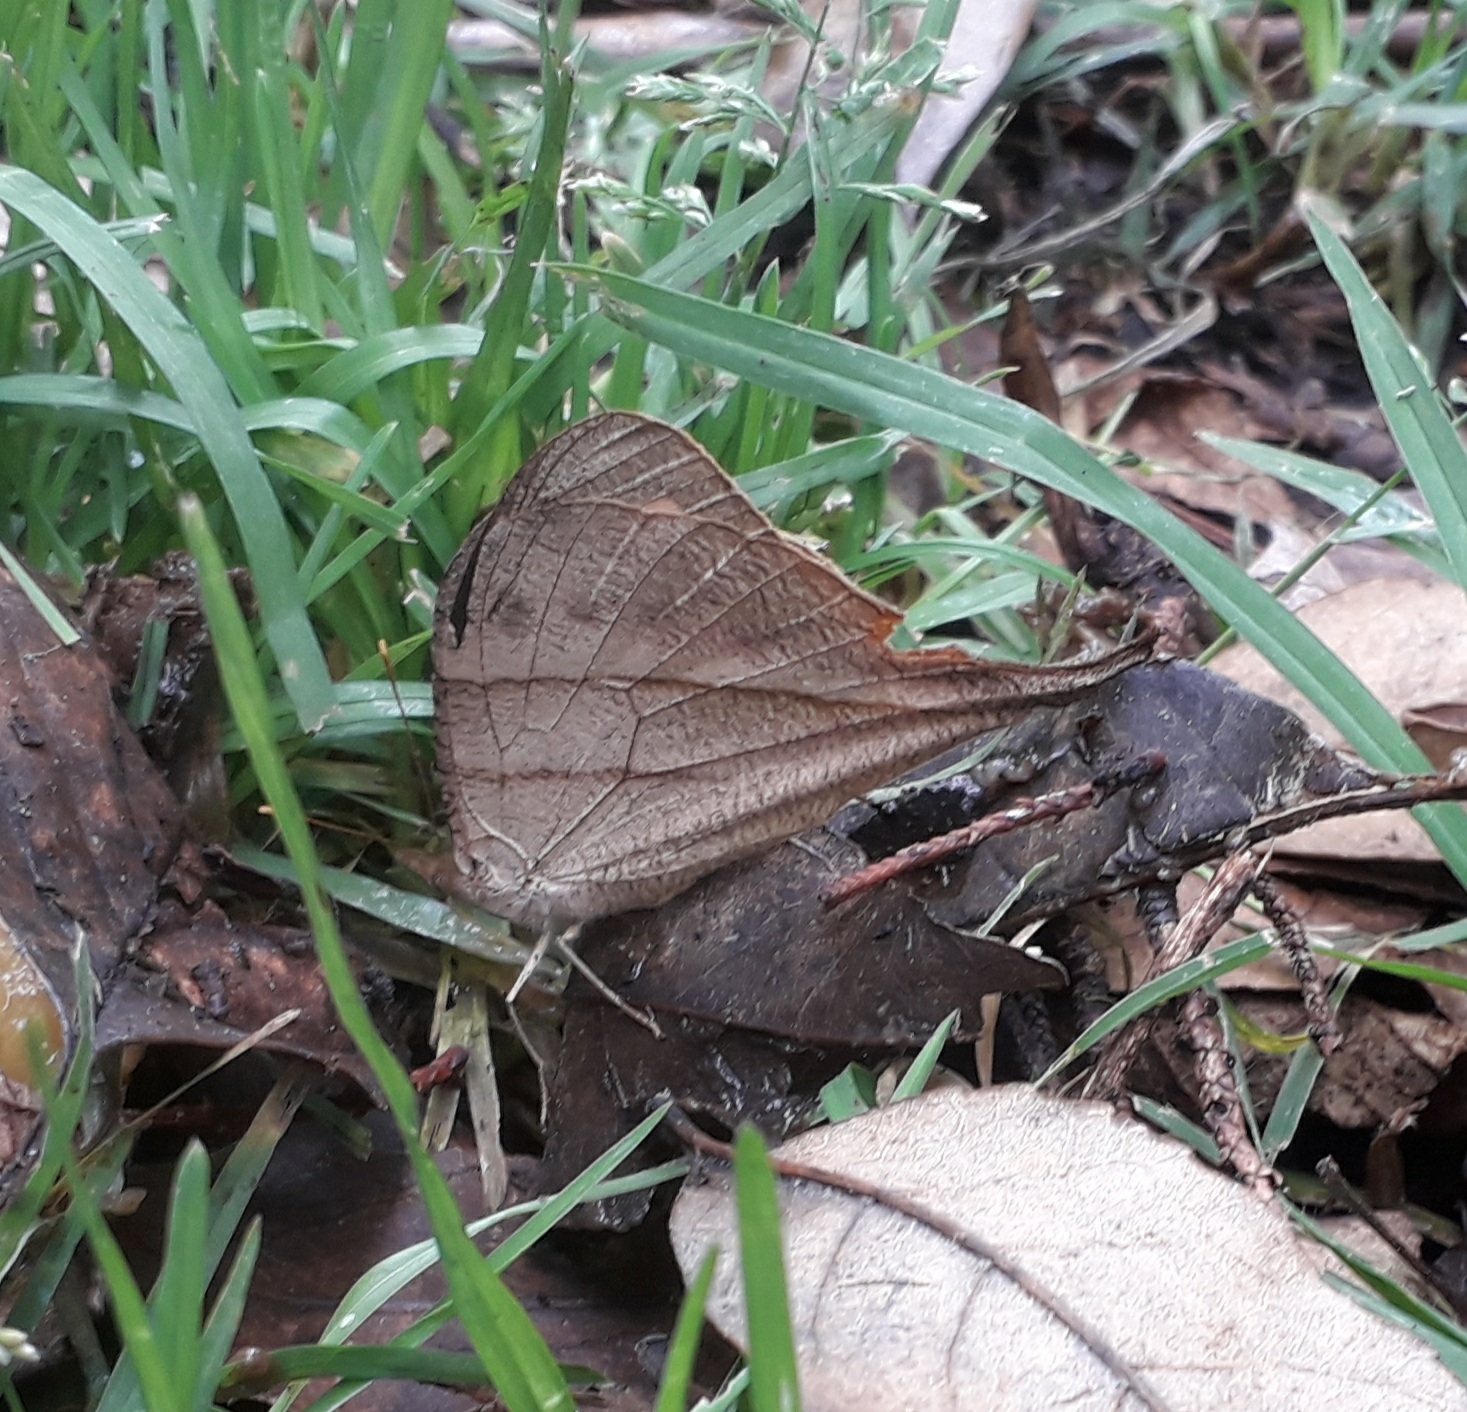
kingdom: Animalia
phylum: Arthropoda
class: Insecta
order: Lepidoptera
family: Nymphalidae
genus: Corades
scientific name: Corades chelonis
